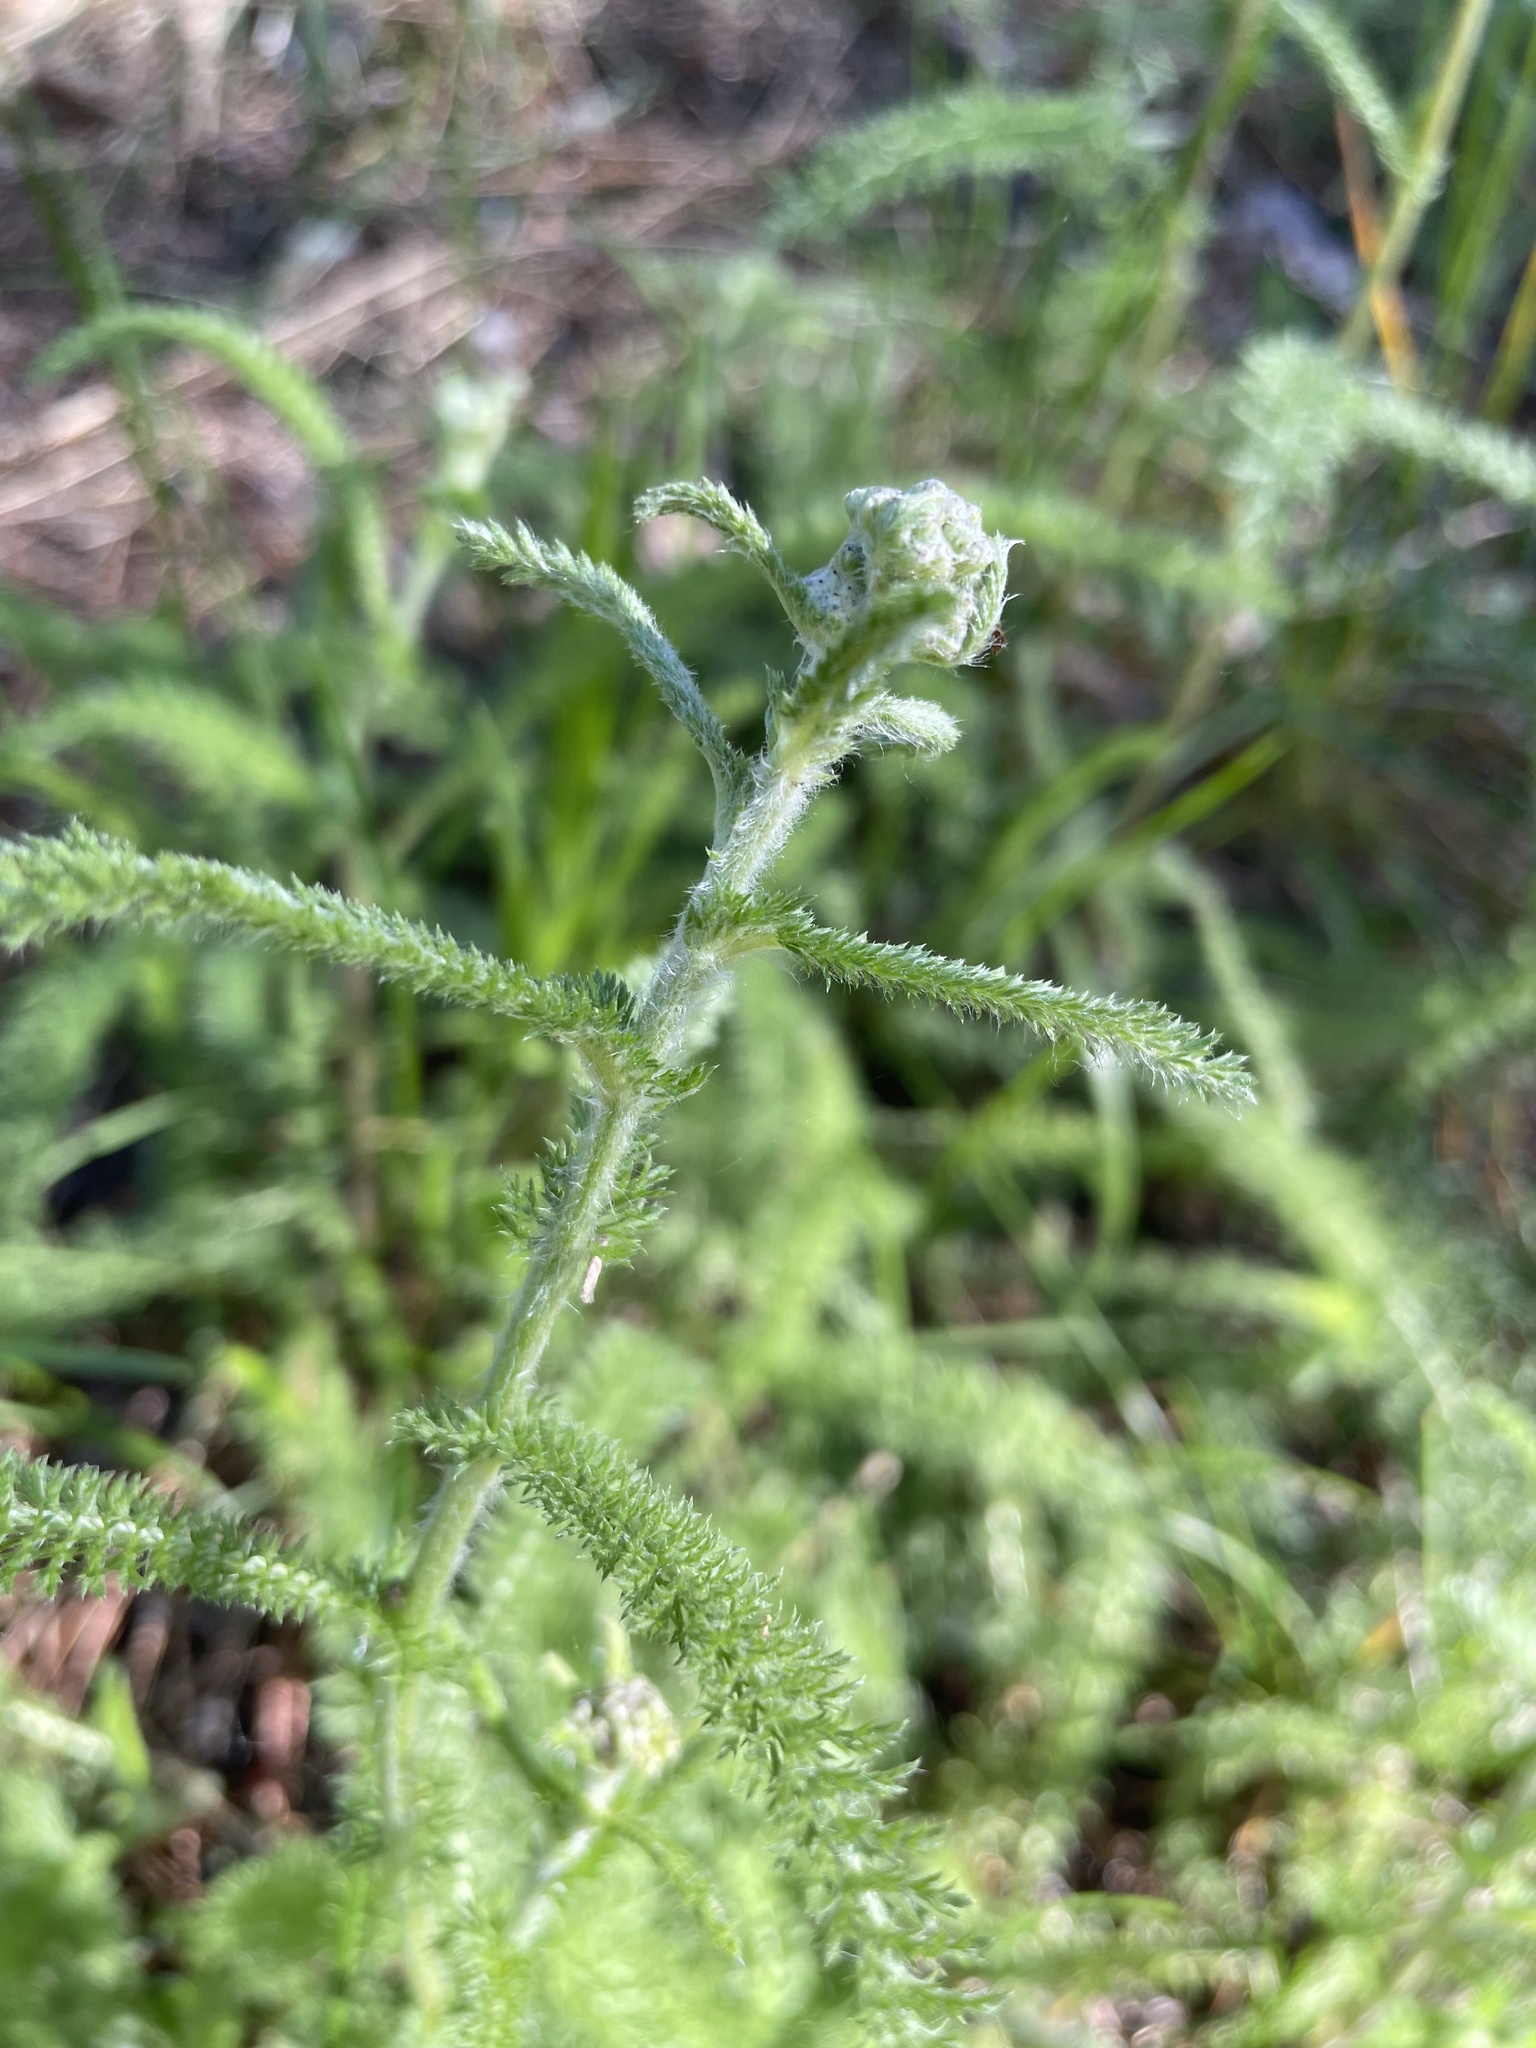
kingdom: Plantae
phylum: Tracheophyta
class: Magnoliopsida
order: Asterales
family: Asteraceae
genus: Achillea
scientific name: Achillea millefolium
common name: Yarrow
